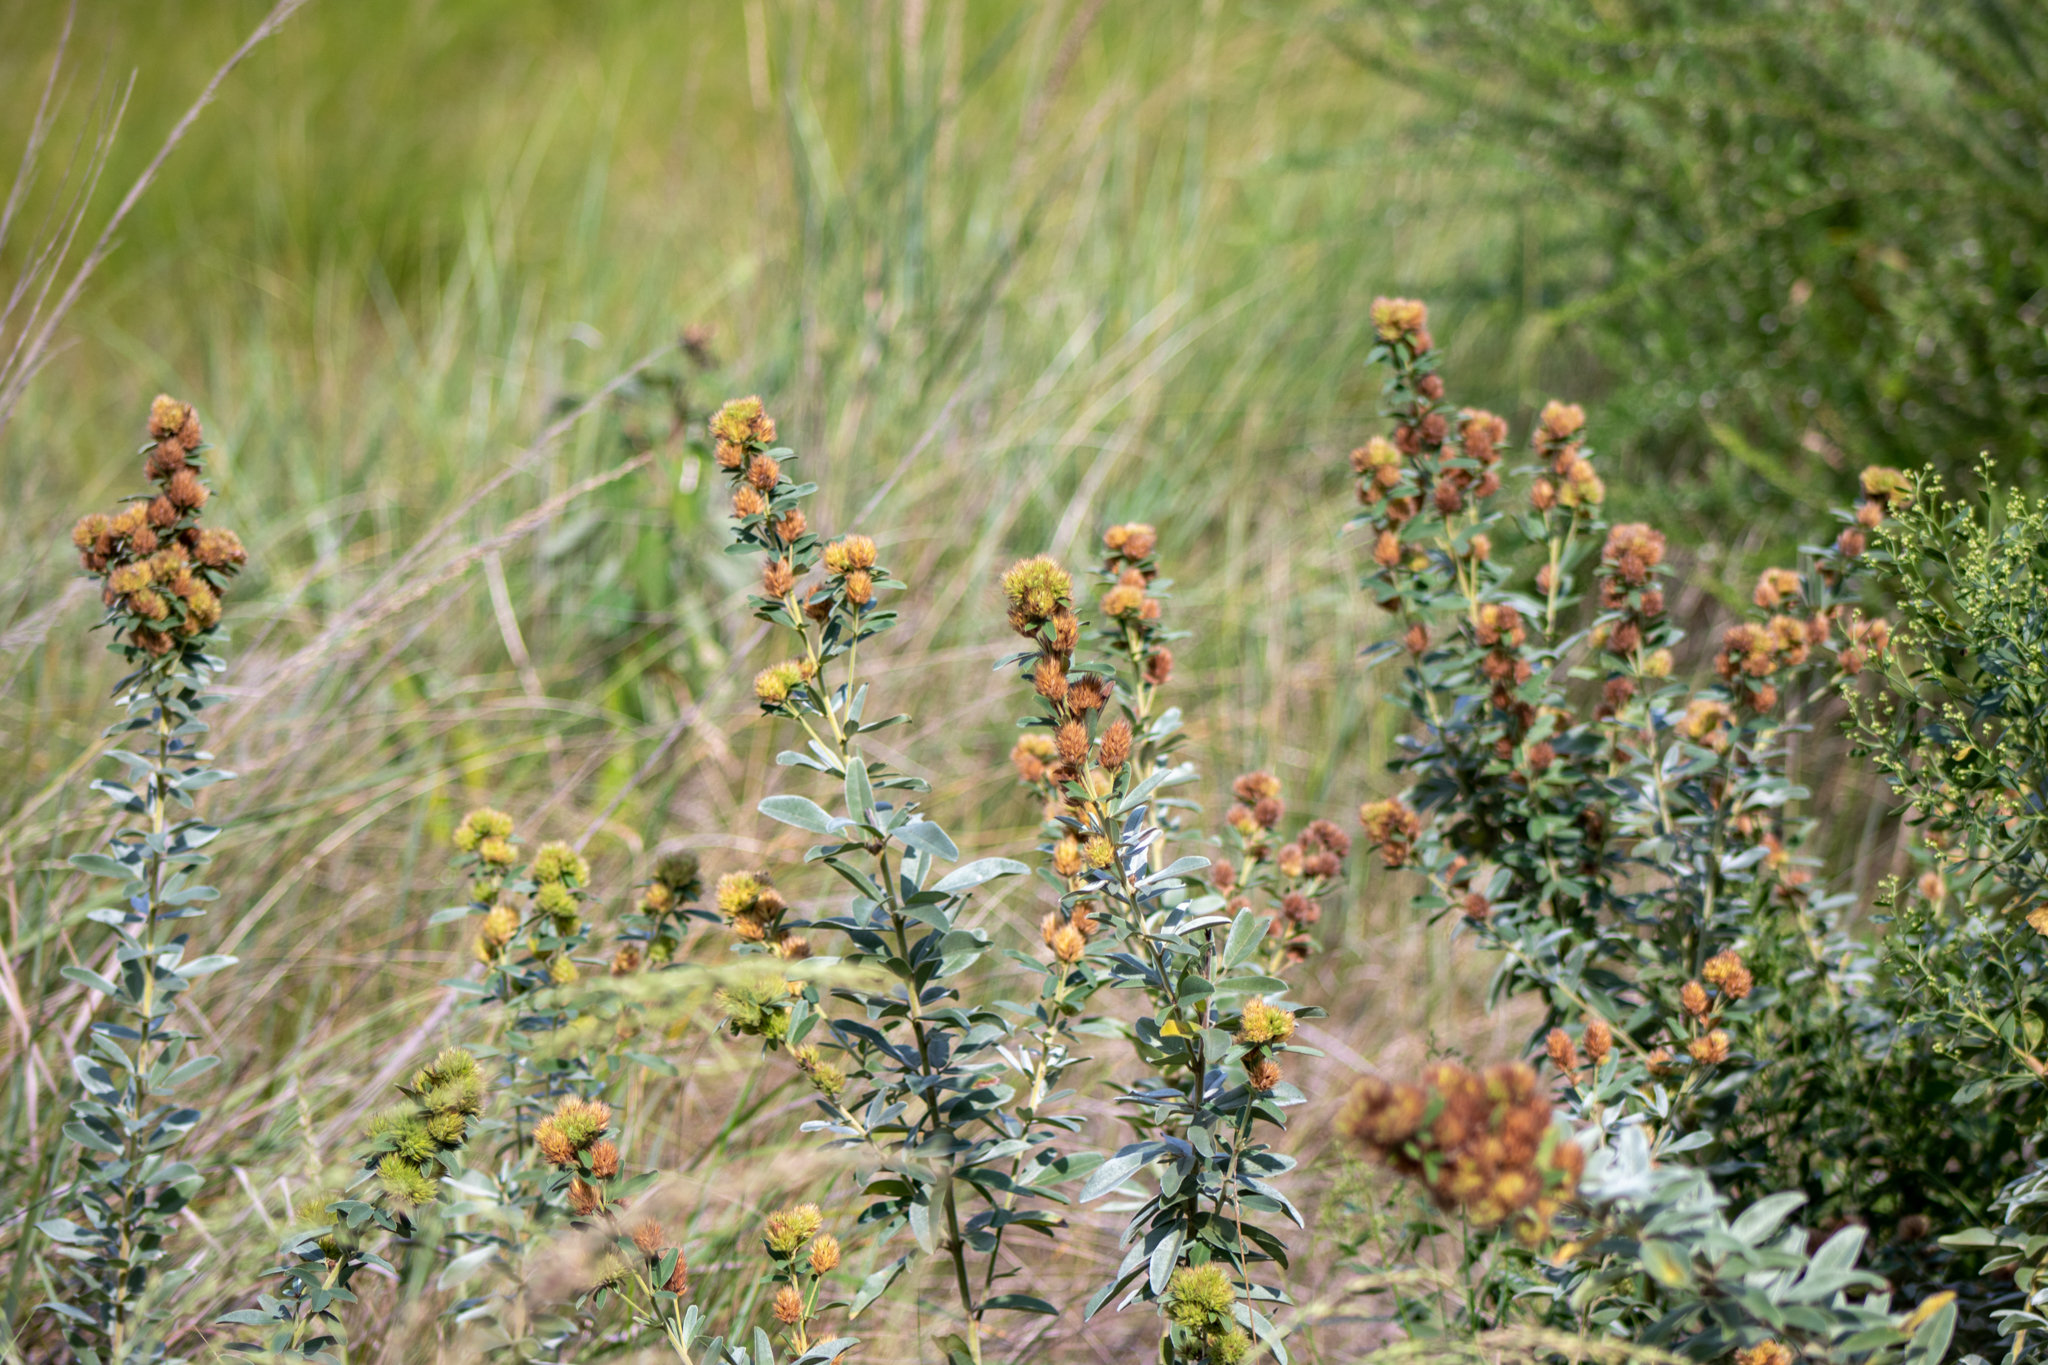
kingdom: Plantae
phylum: Tracheophyta
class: Magnoliopsida
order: Fabales
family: Fabaceae
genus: Lespedeza
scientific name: Lespedeza capitata
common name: Dusty clover
